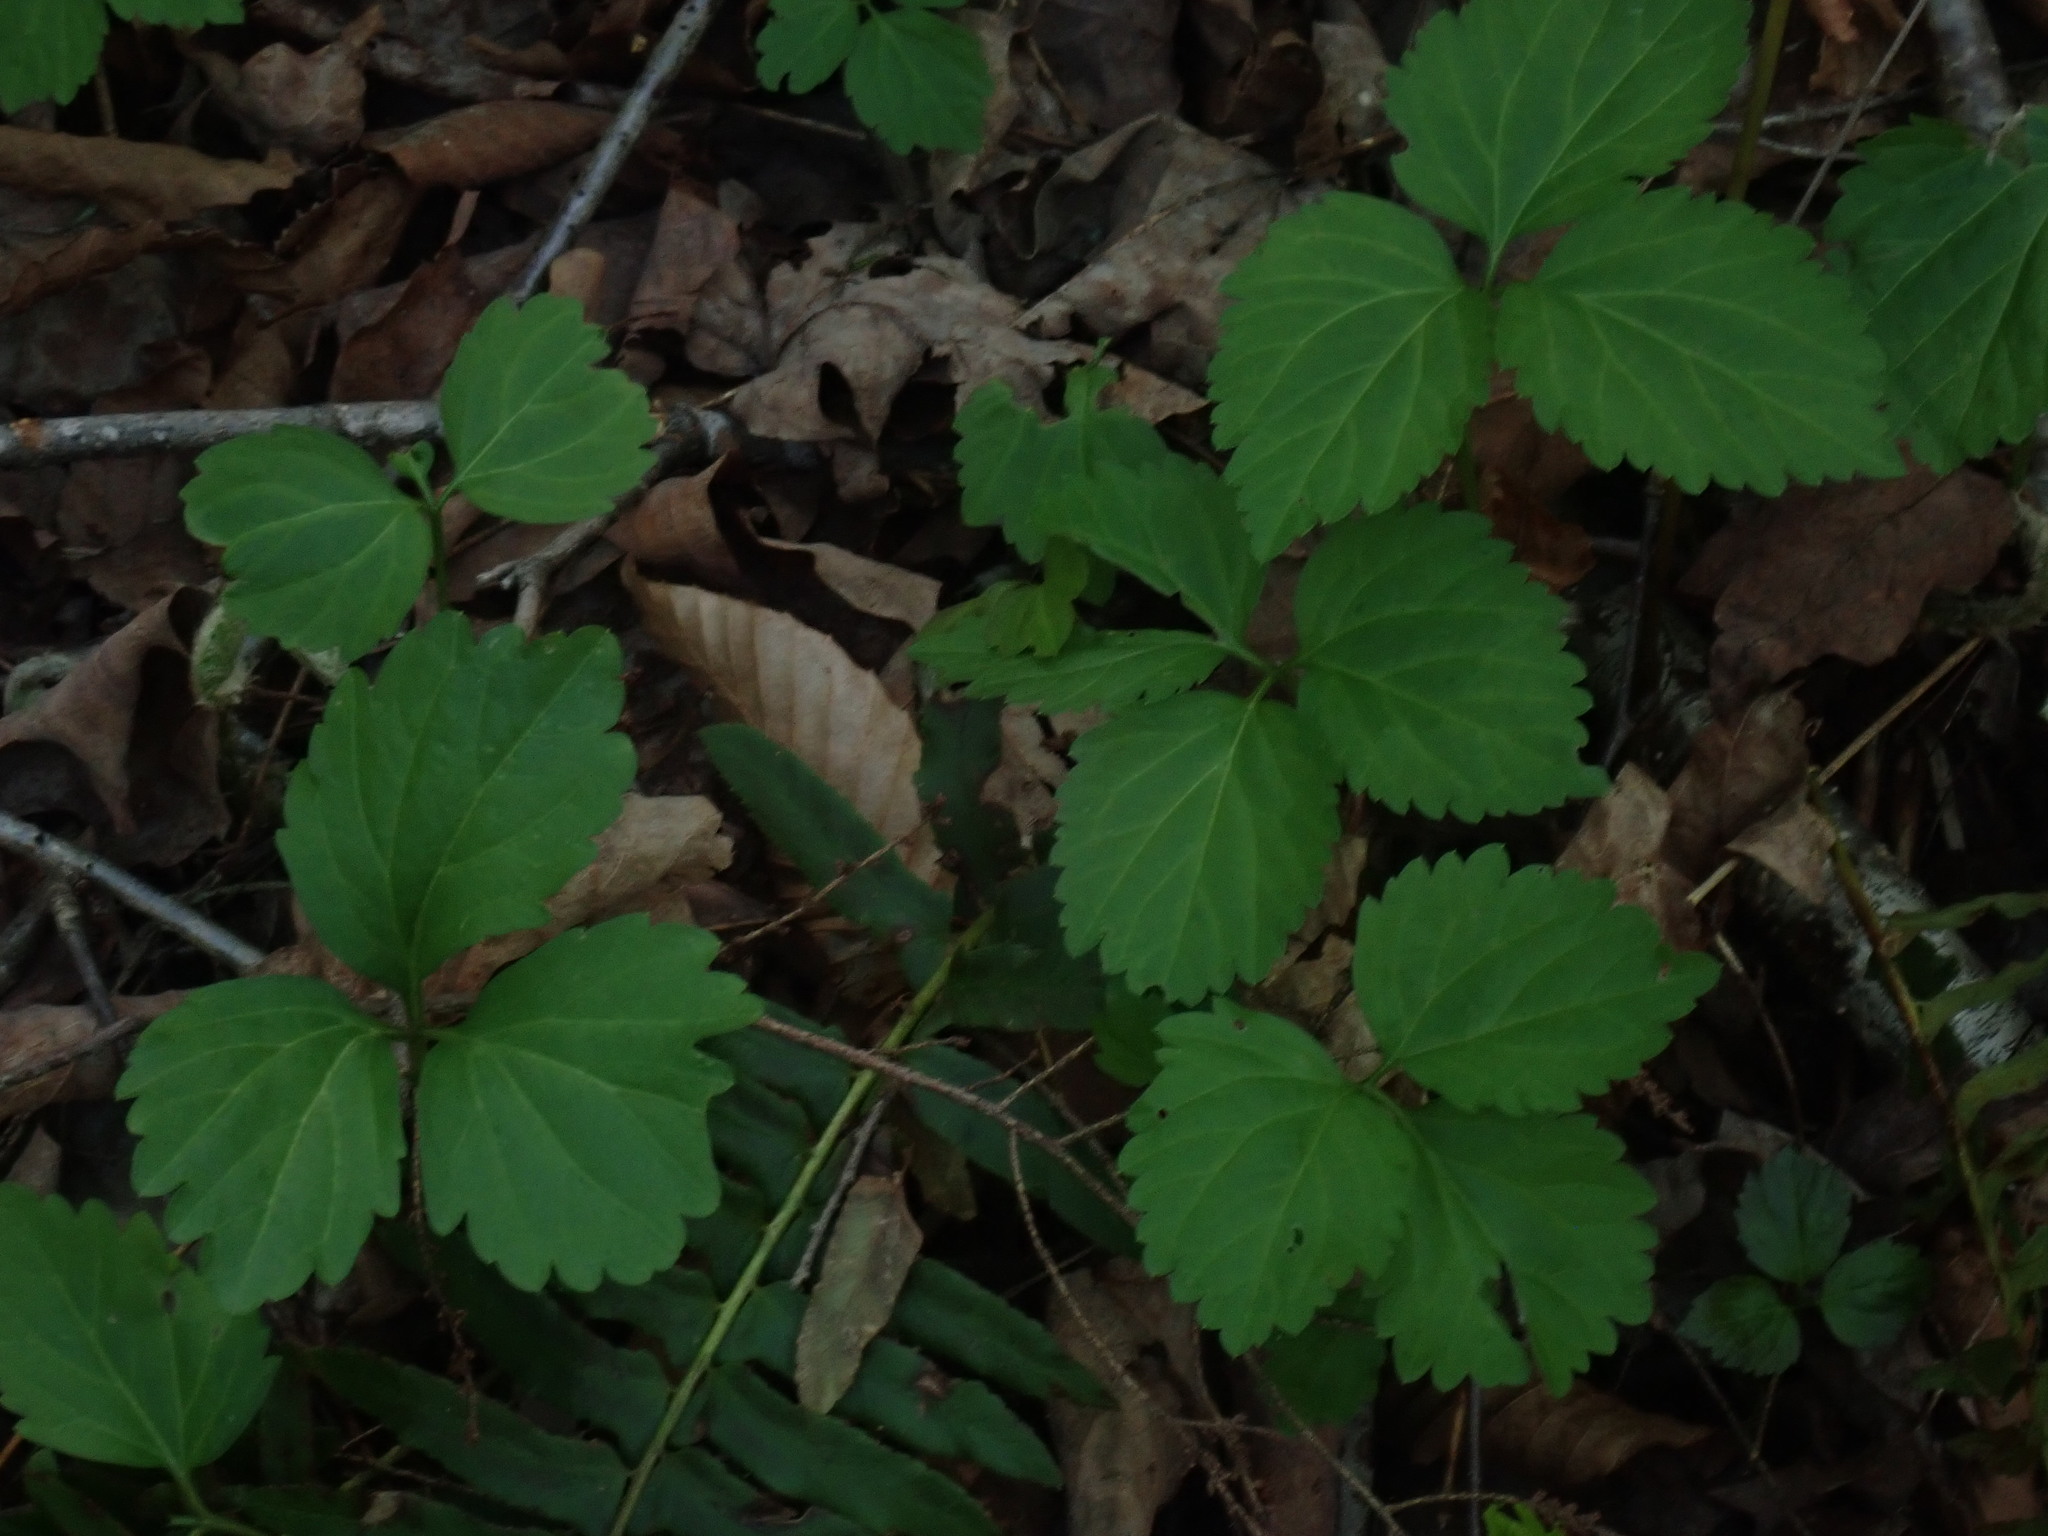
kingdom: Plantae
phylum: Tracheophyta
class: Magnoliopsida
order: Brassicales
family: Brassicaceae
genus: Cardamine
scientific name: Cardamine diphylla
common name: Broad-leaved toothwort
